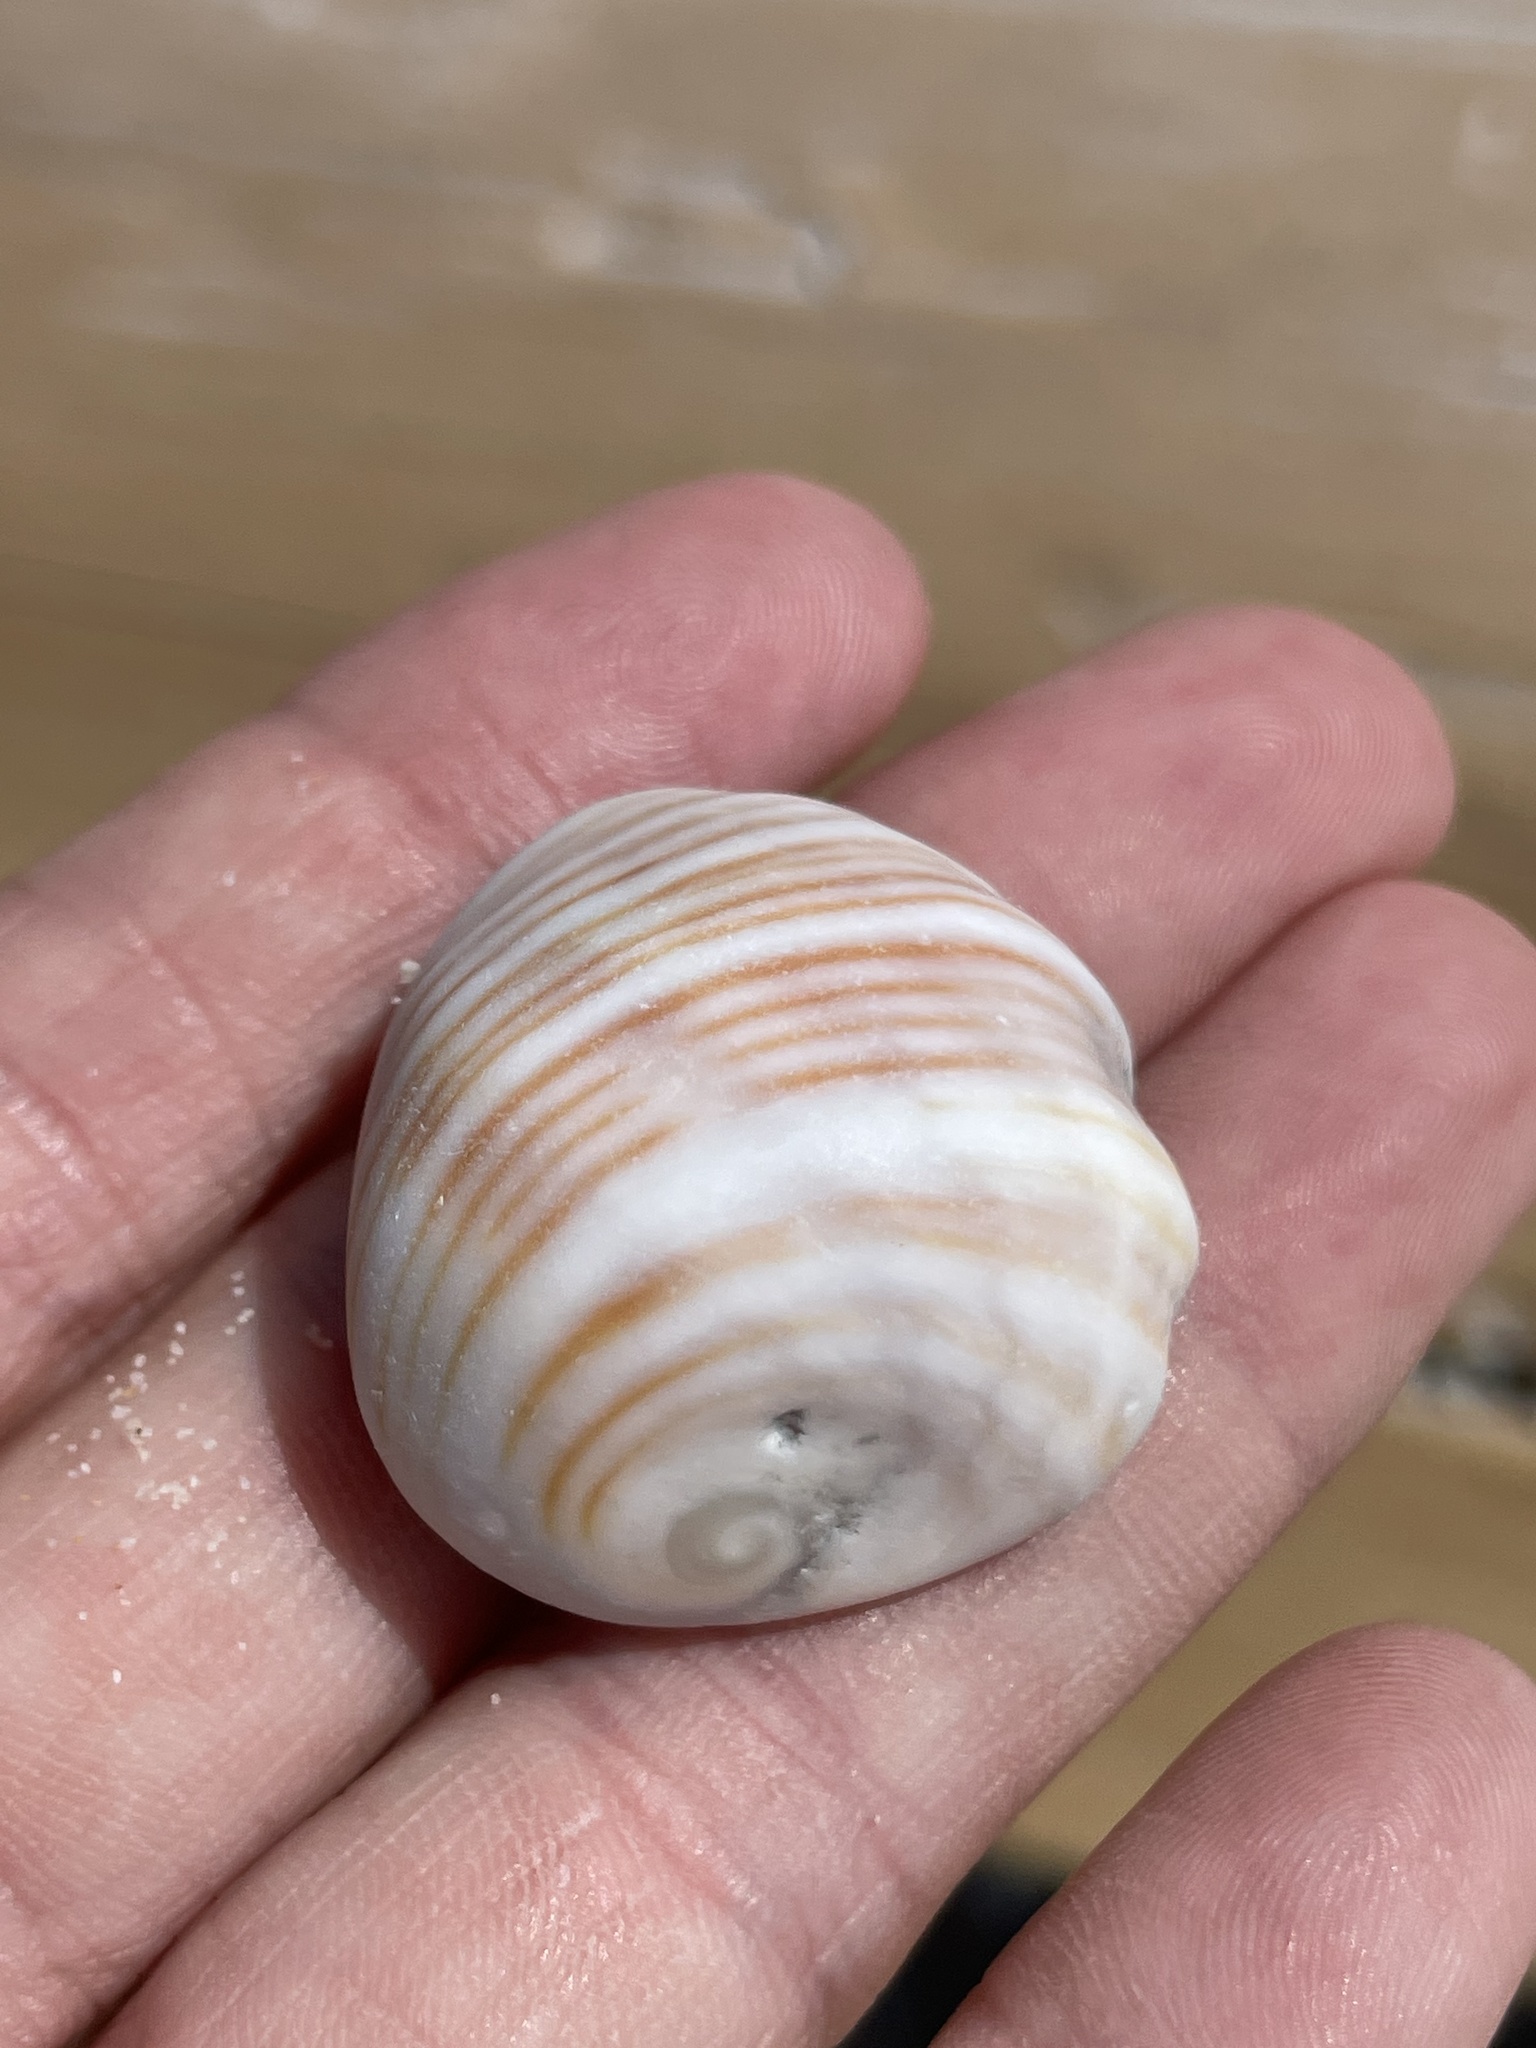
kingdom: Animalia
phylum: Mollusca
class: Gastropoda
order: Neogastropoda
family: Muricidae
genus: Tribulus
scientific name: Tribulus planospira
